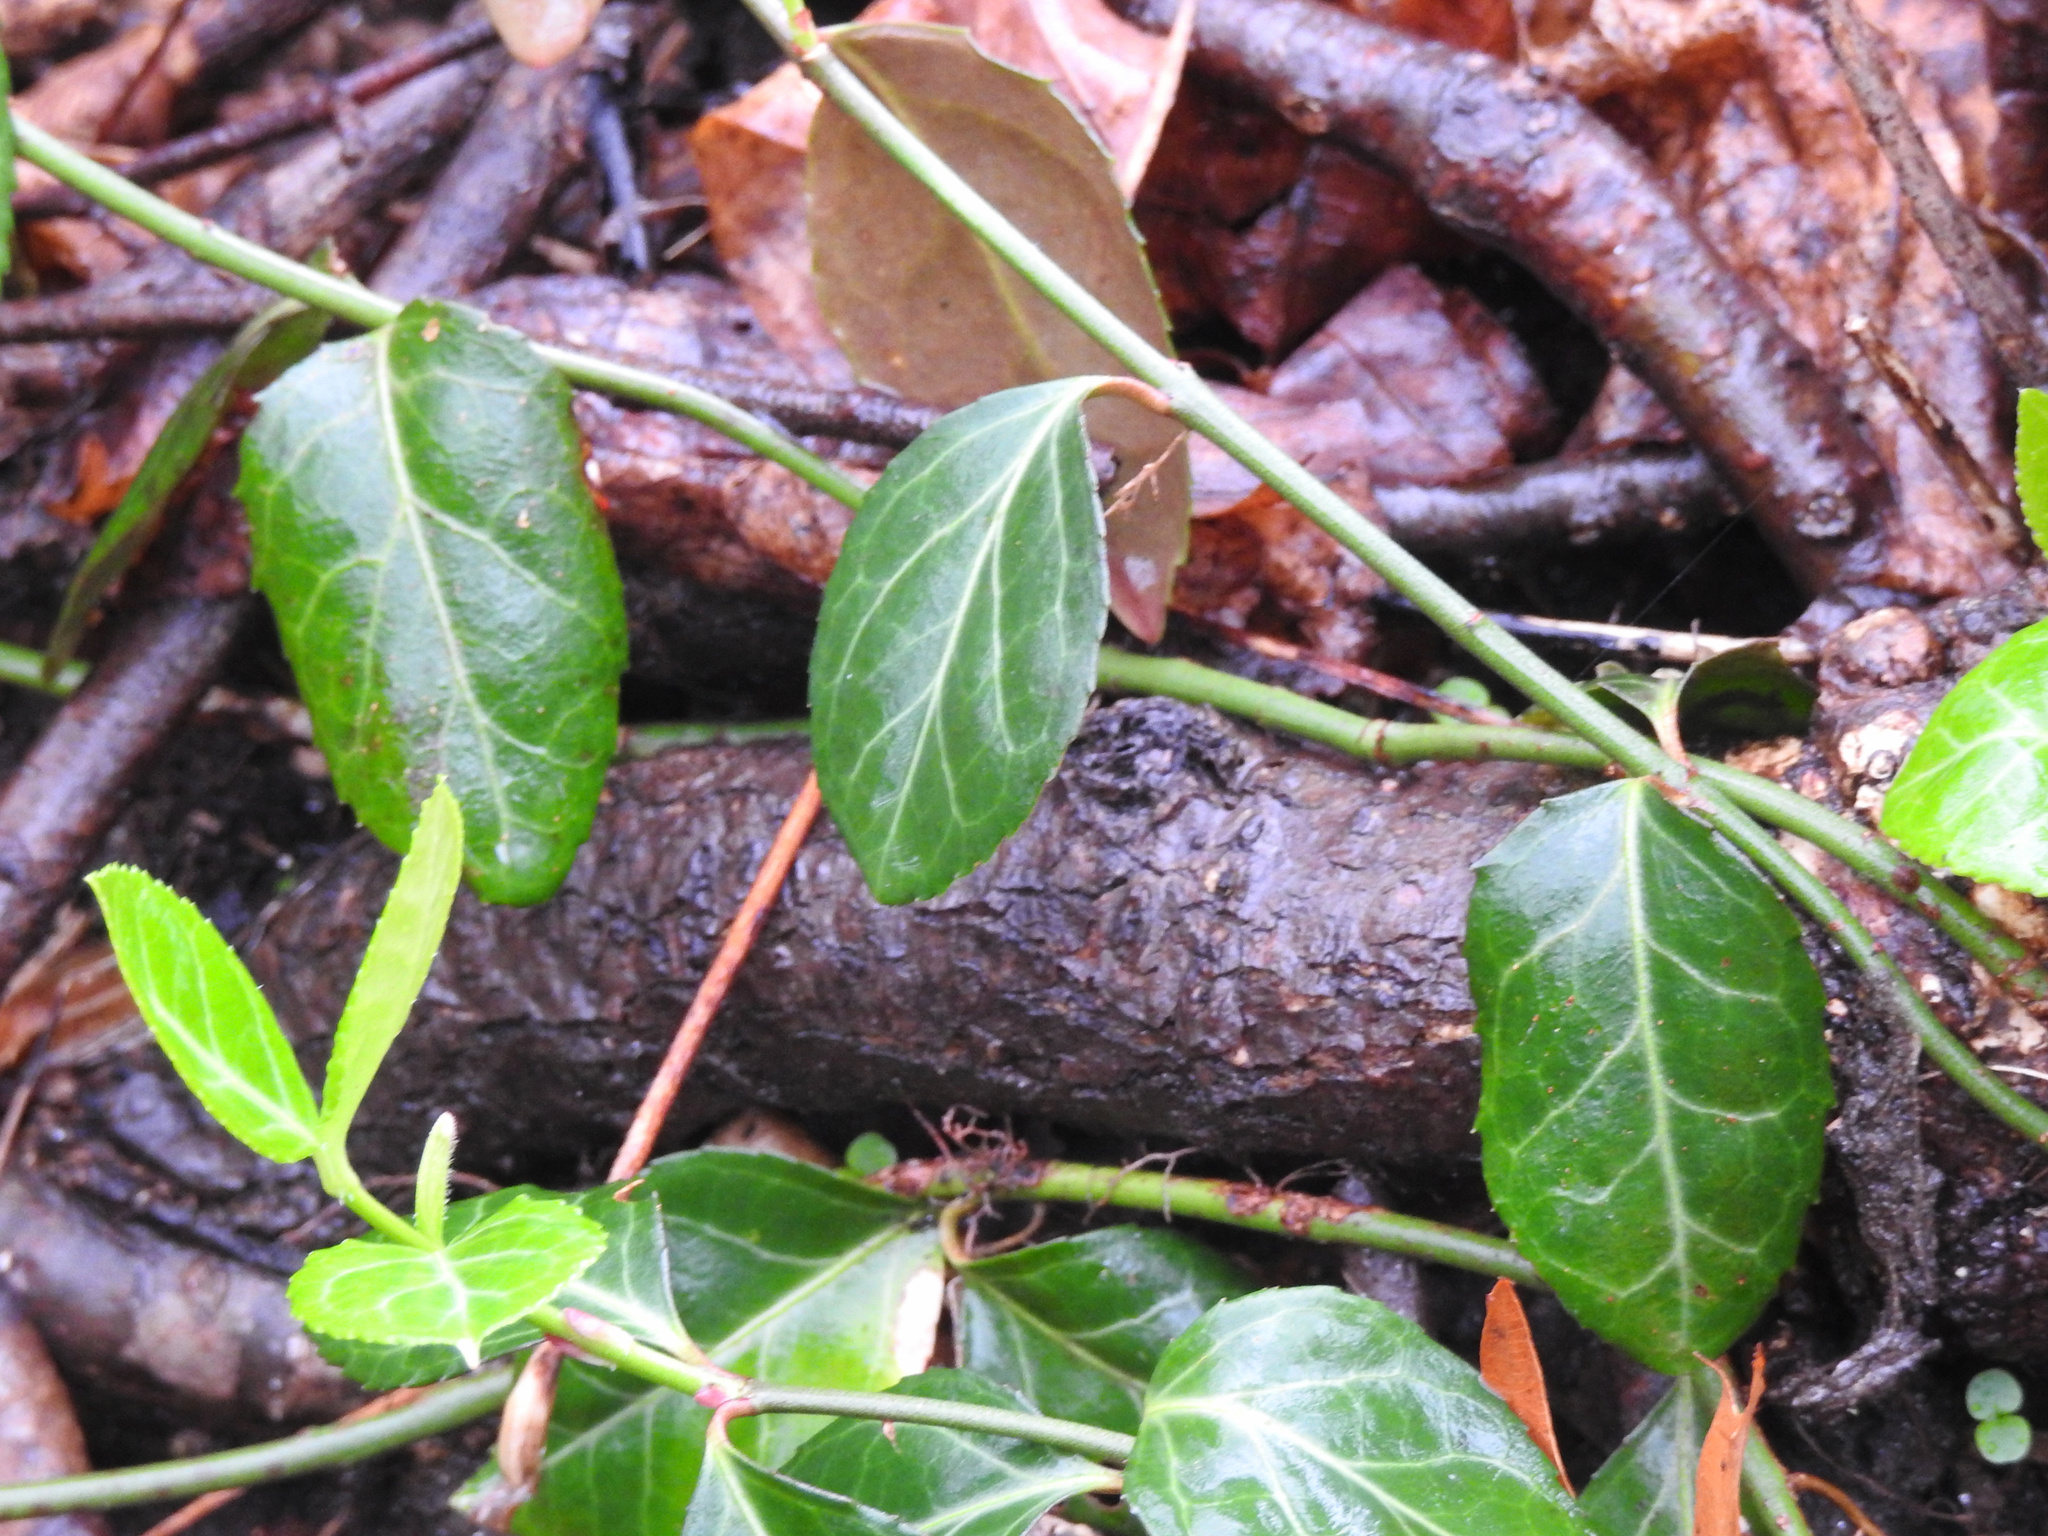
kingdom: Plantae
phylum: Tracheophyta
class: Magnoliopsida
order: Celastrales
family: Celastraceae
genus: Euonymus
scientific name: Euonymus fortunei
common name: Climbing euonymus
